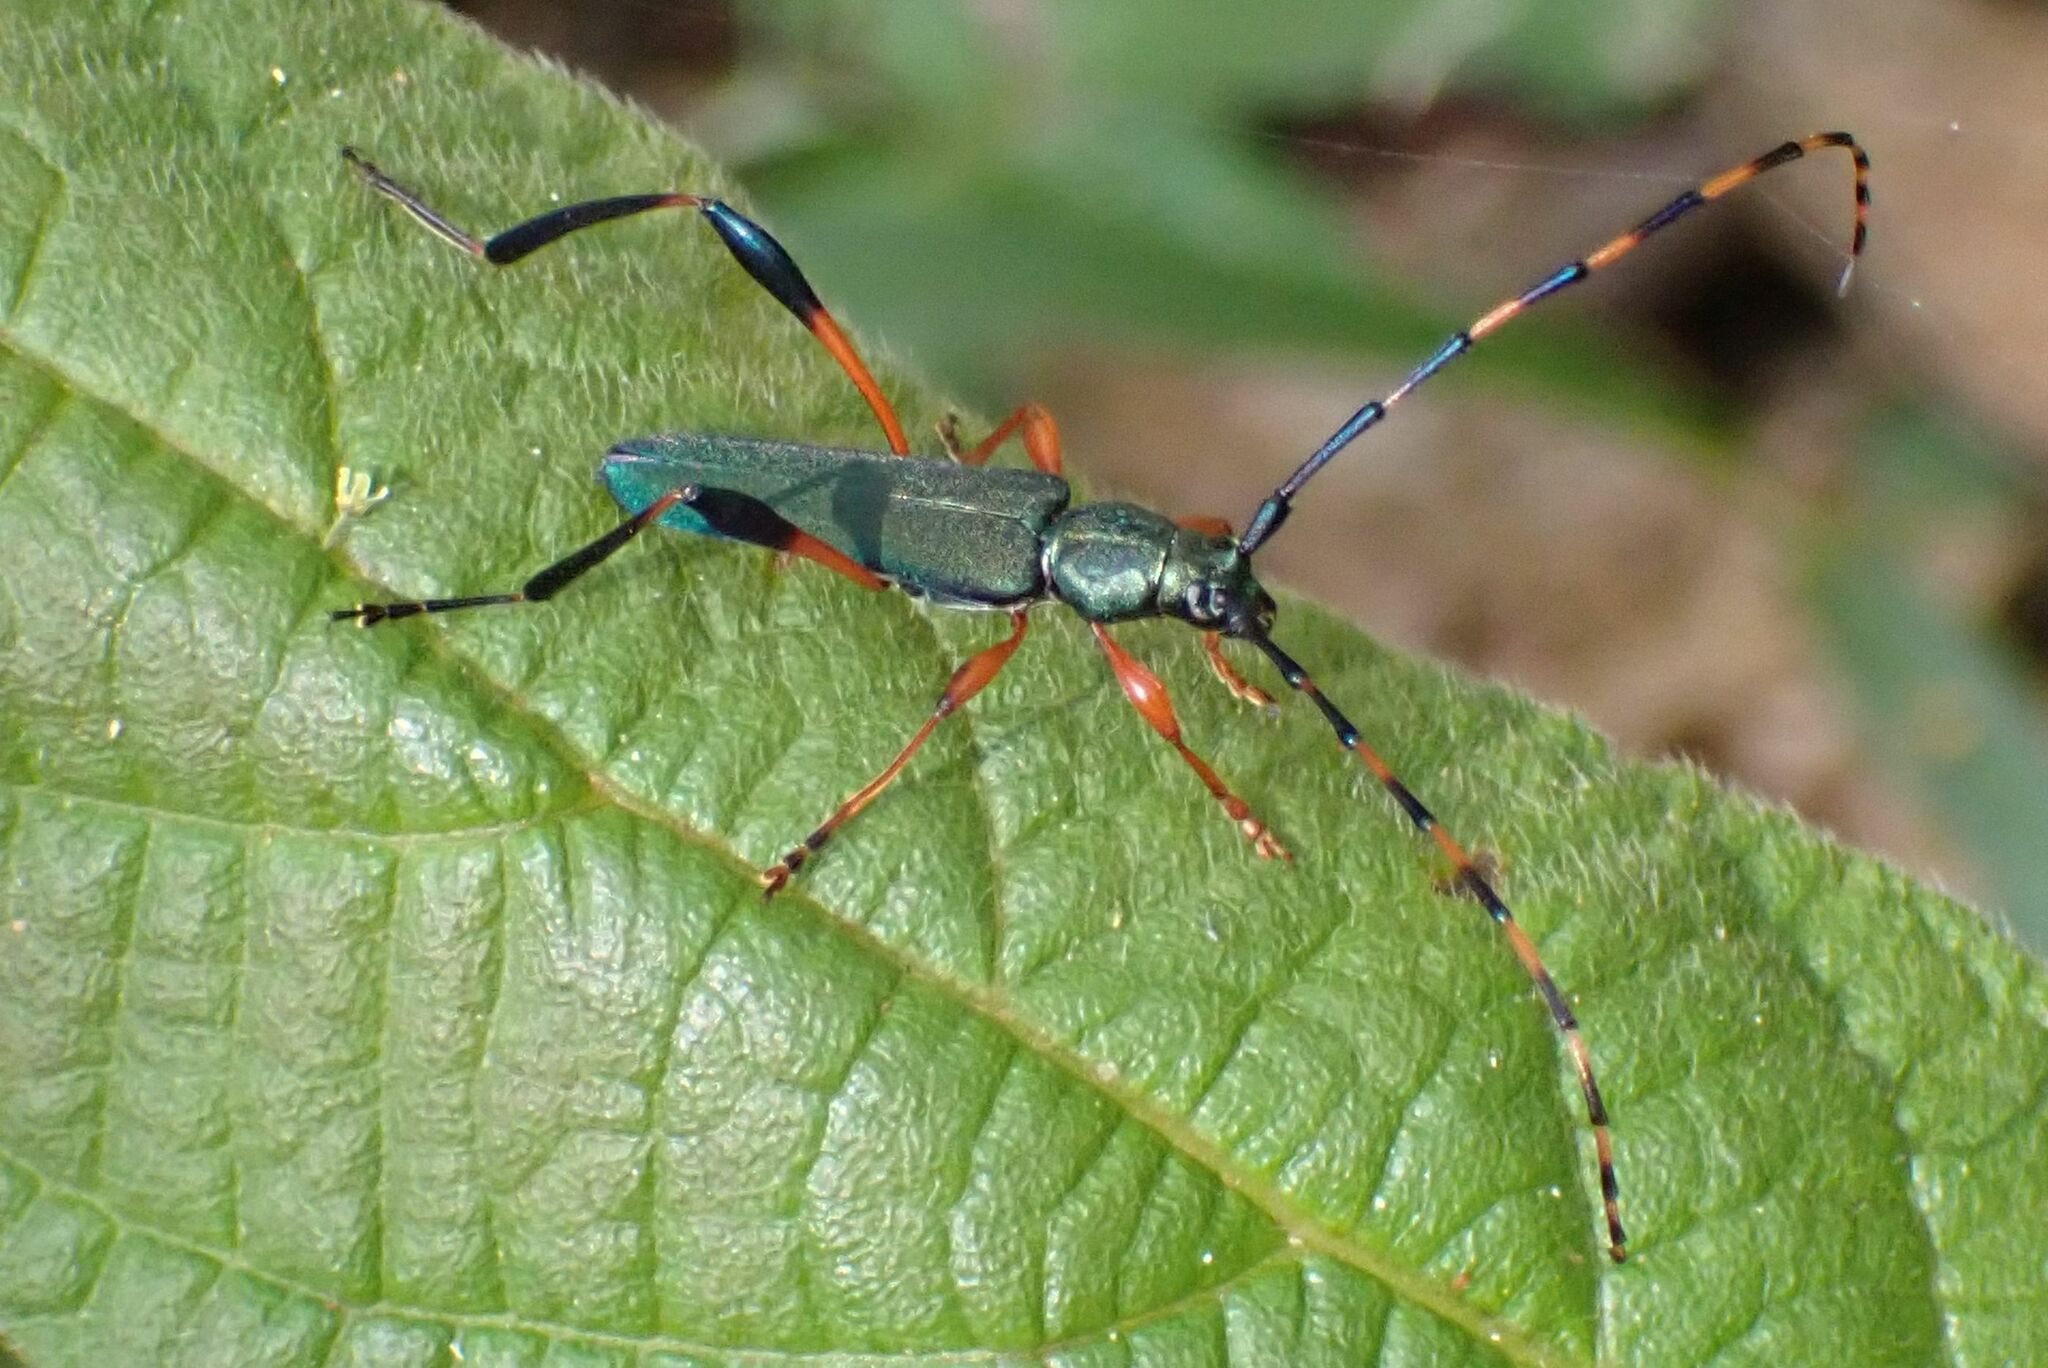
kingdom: Animalia
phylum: Arthropoda
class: Insecta
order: Coleoptera
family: Cerambycidae
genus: Litopus
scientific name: Litopus latipes
